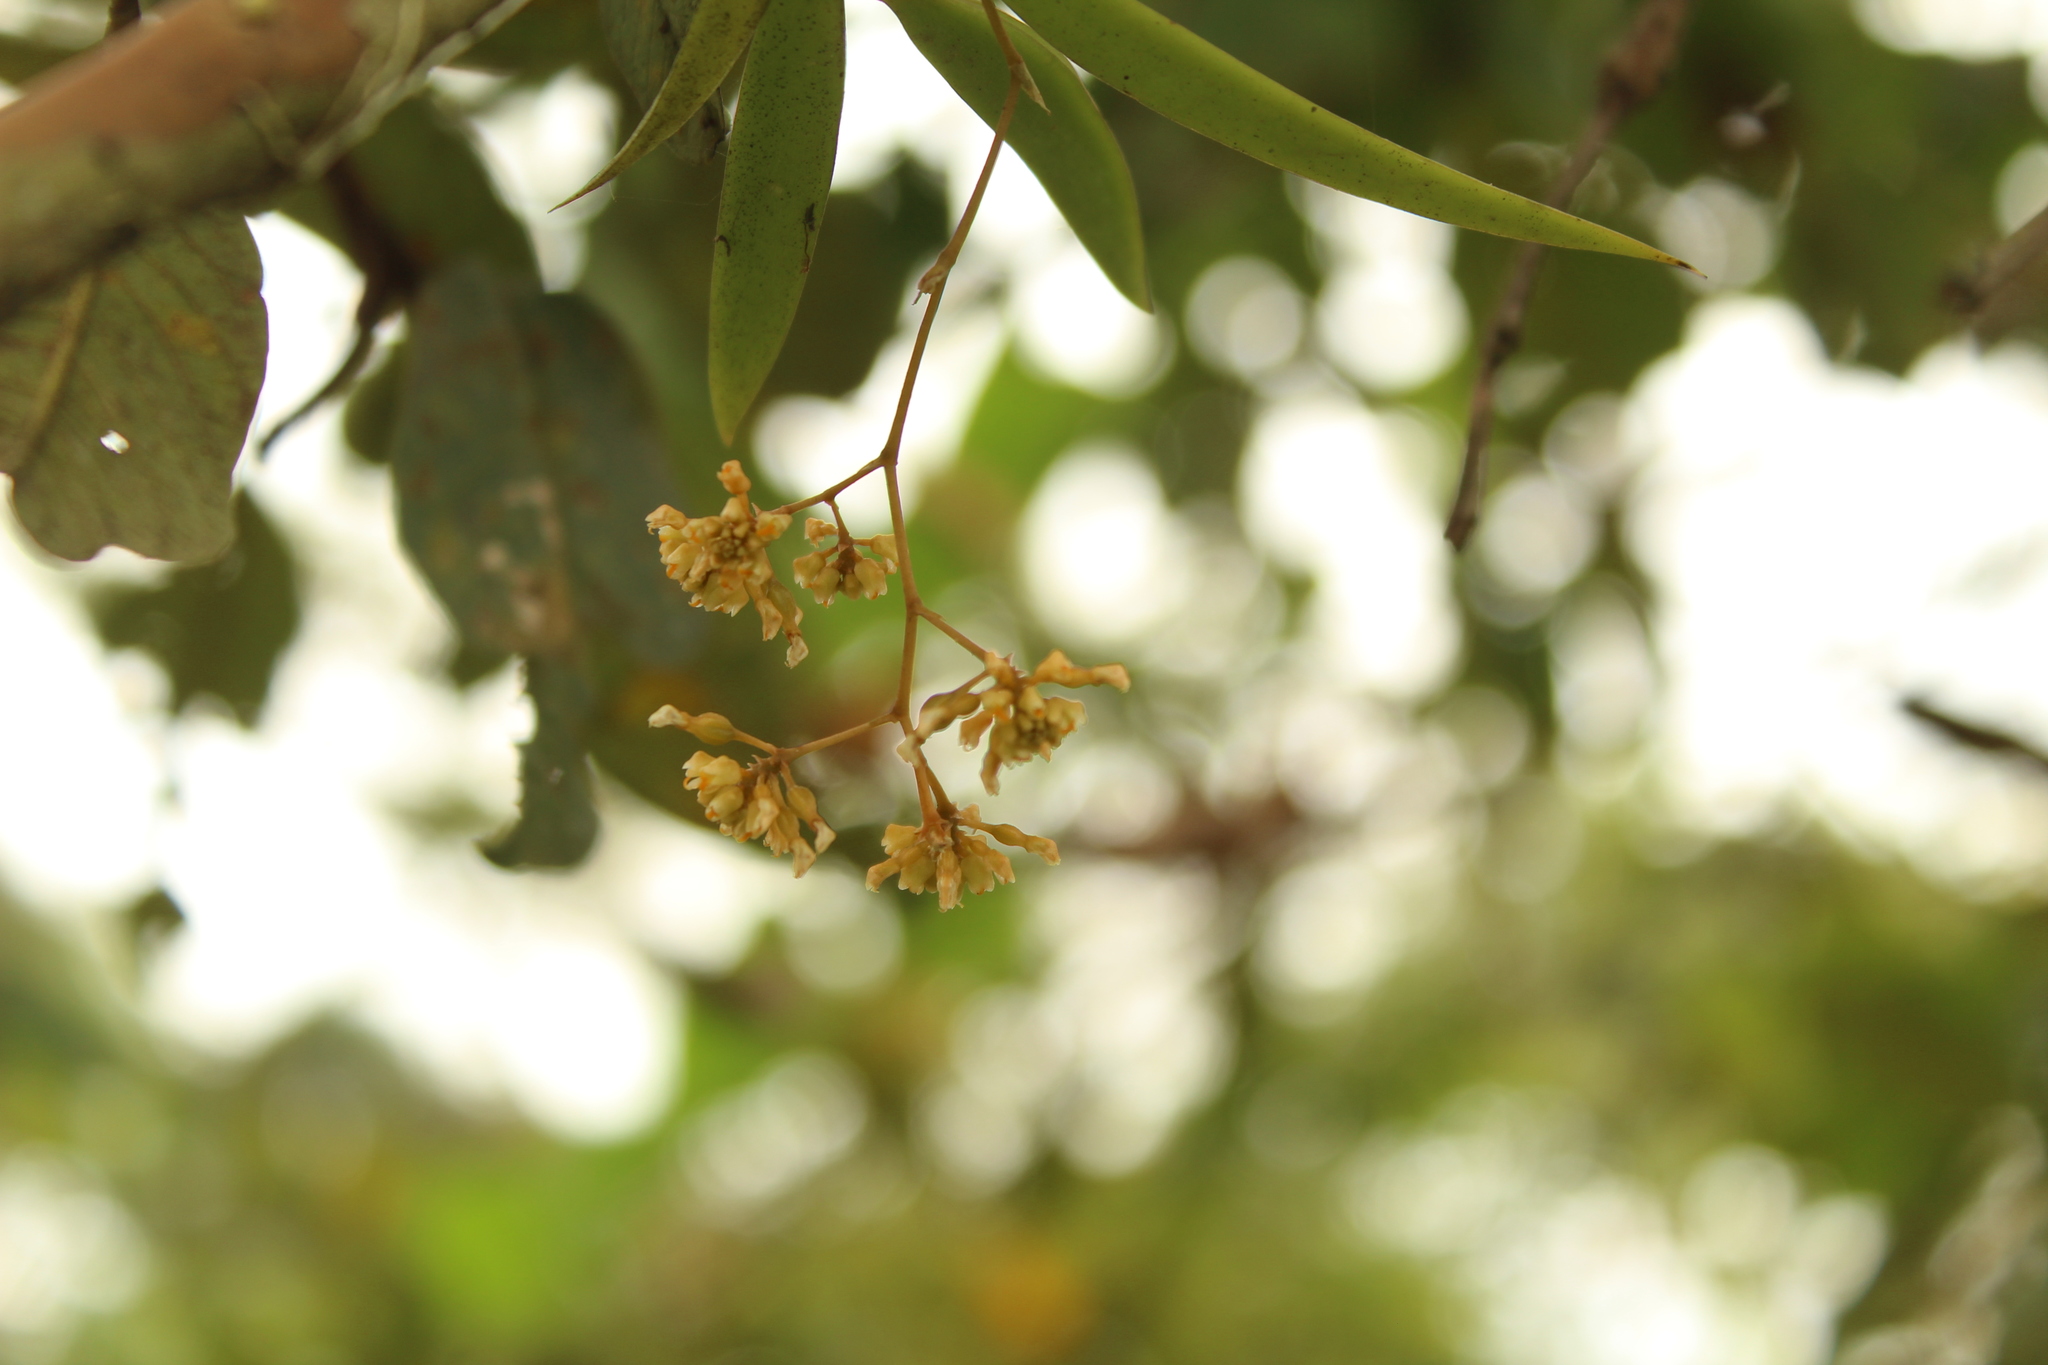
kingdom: Plantae
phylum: Tracheophyta
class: Liliopsida
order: Asparagales
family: Orchidaceae
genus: Trizeuxis
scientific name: Trizeuxis falcata
